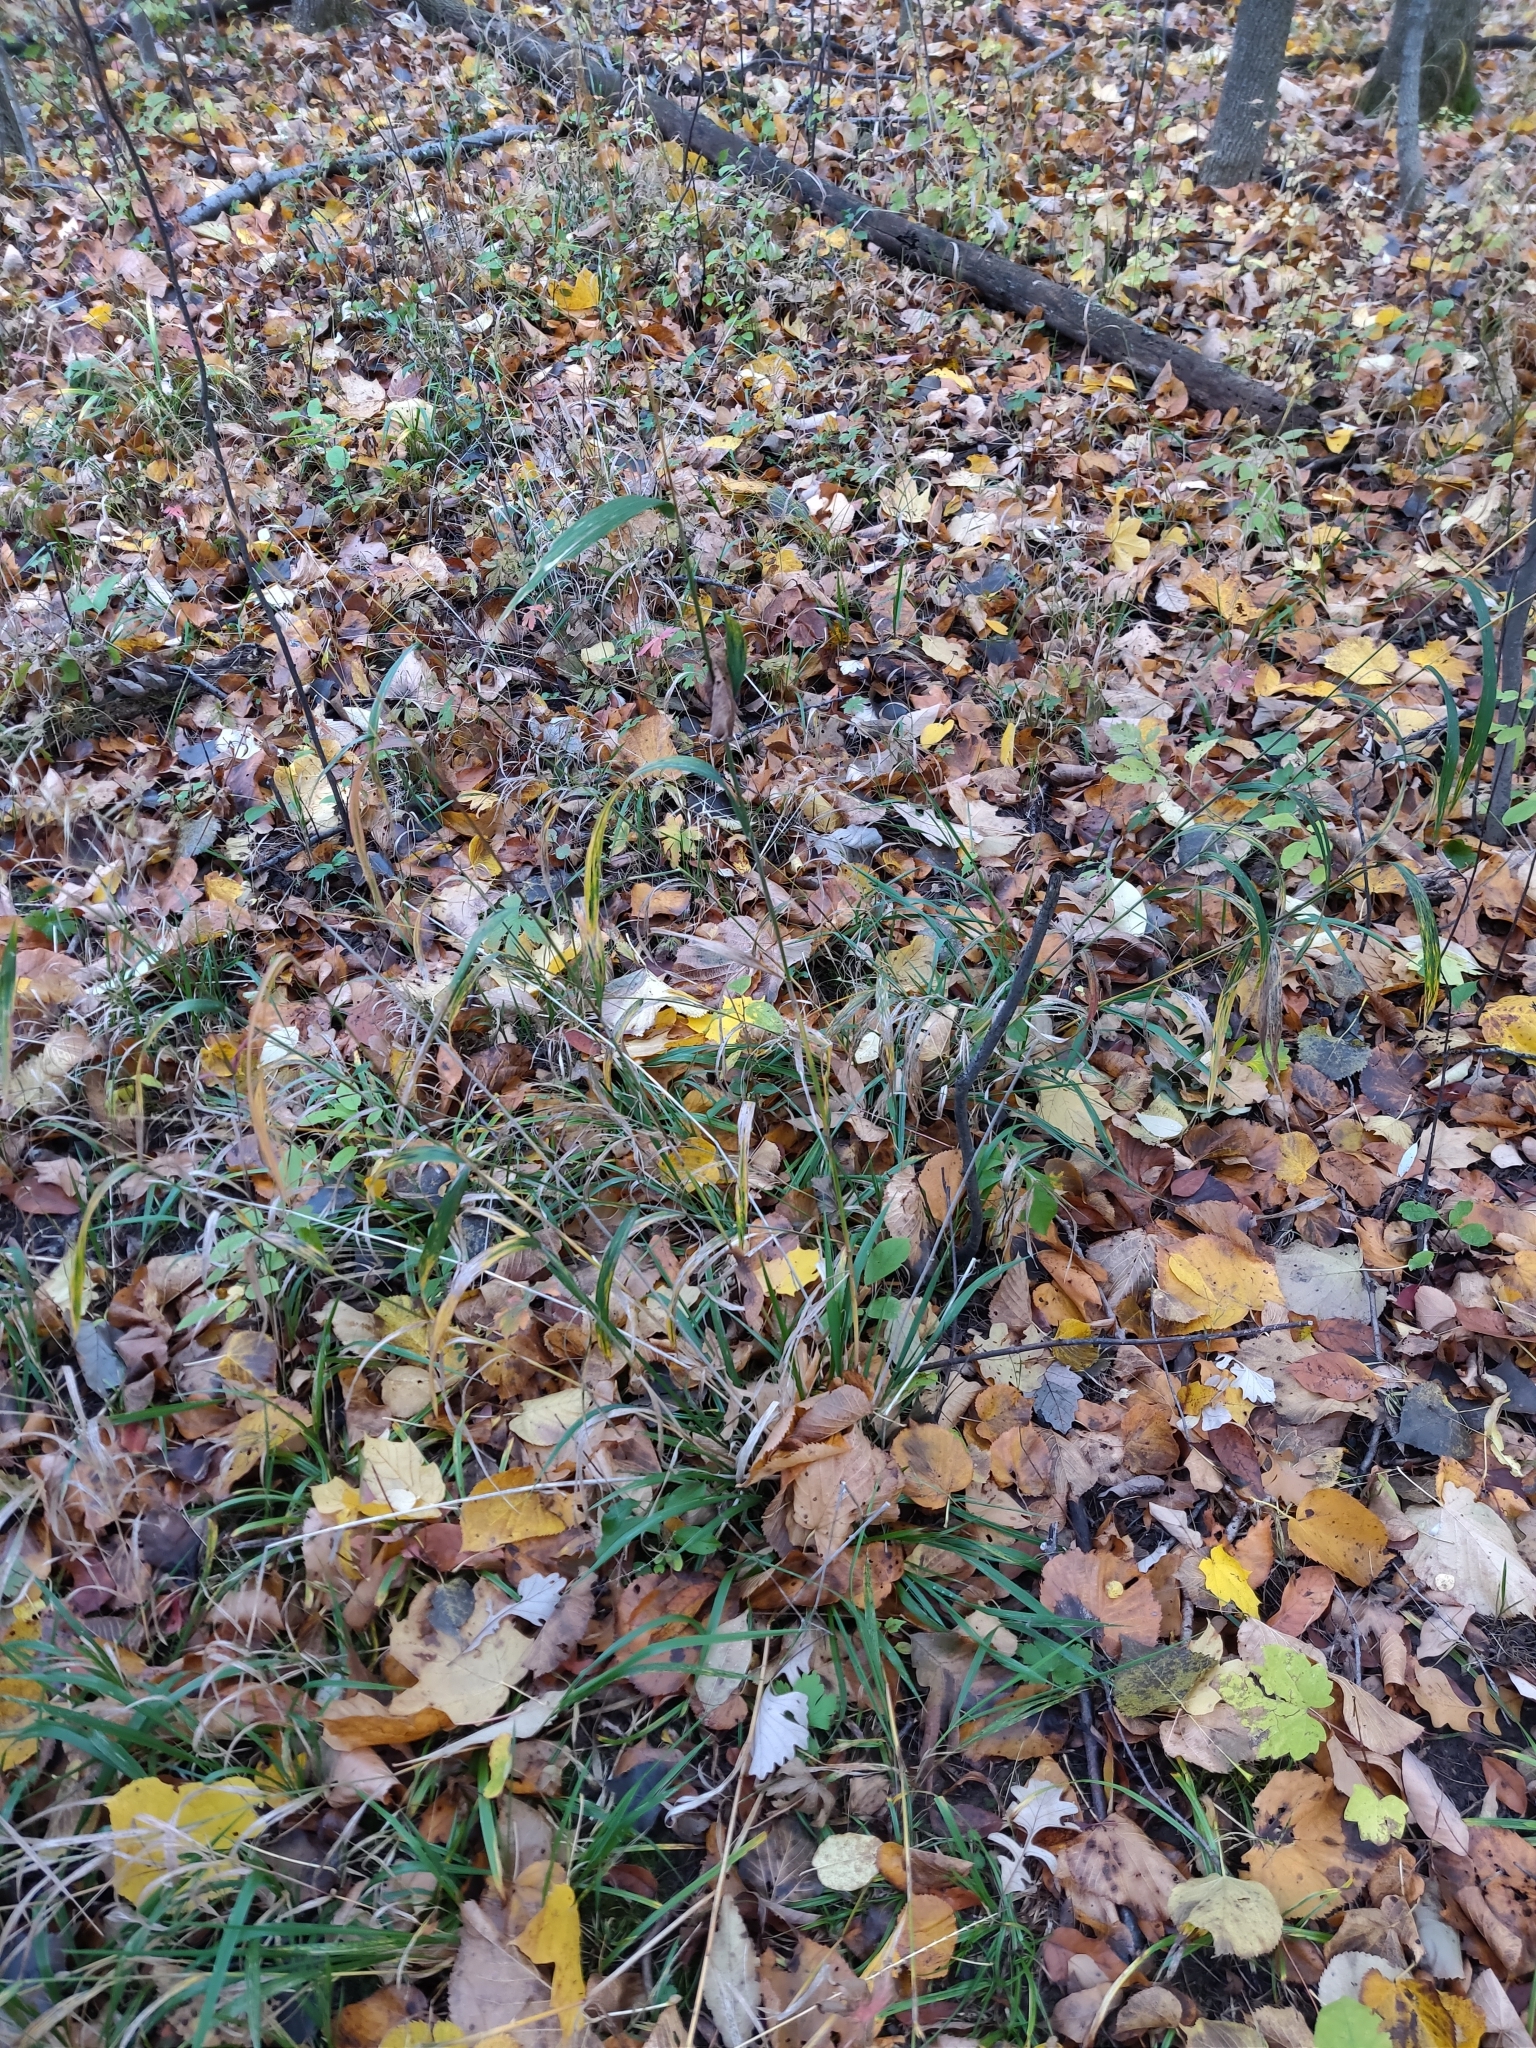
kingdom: Plantae
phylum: Tracheophyta
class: Liliopsida
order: Poales
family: Poaceae
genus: Elymus
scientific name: Elymus hystrix
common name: Bottlebrush grass
